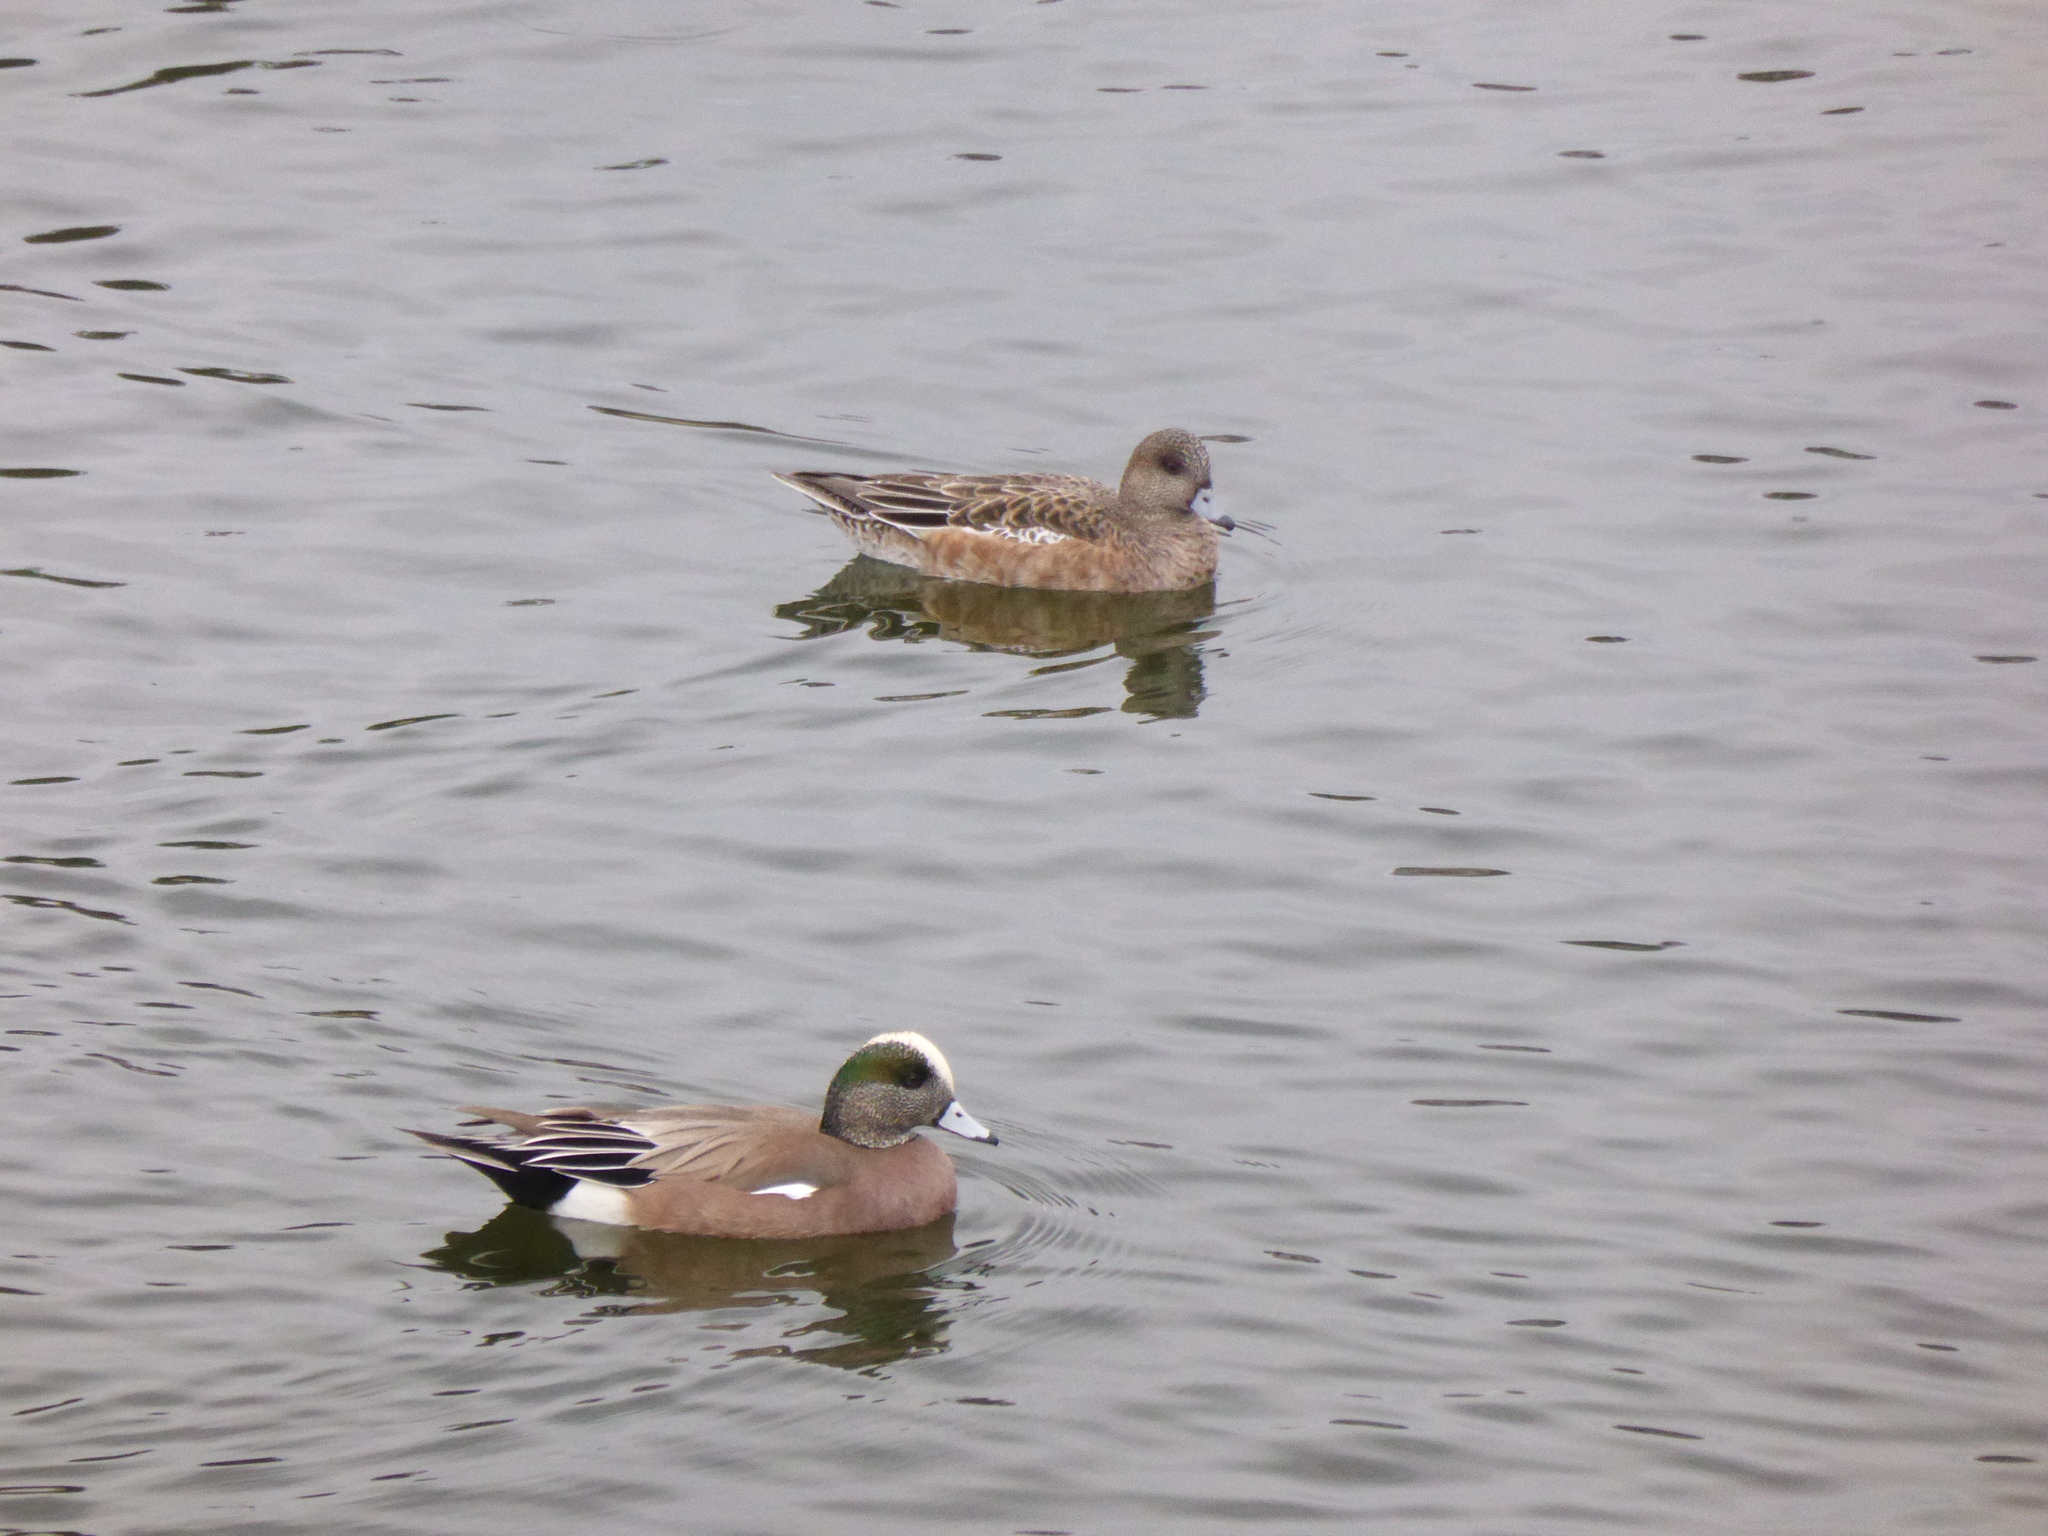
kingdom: Animalia
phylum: Chordata
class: Aves
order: Anseriformes
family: Anatidae
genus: Mareca
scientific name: Mareca americana
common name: American wigeon
